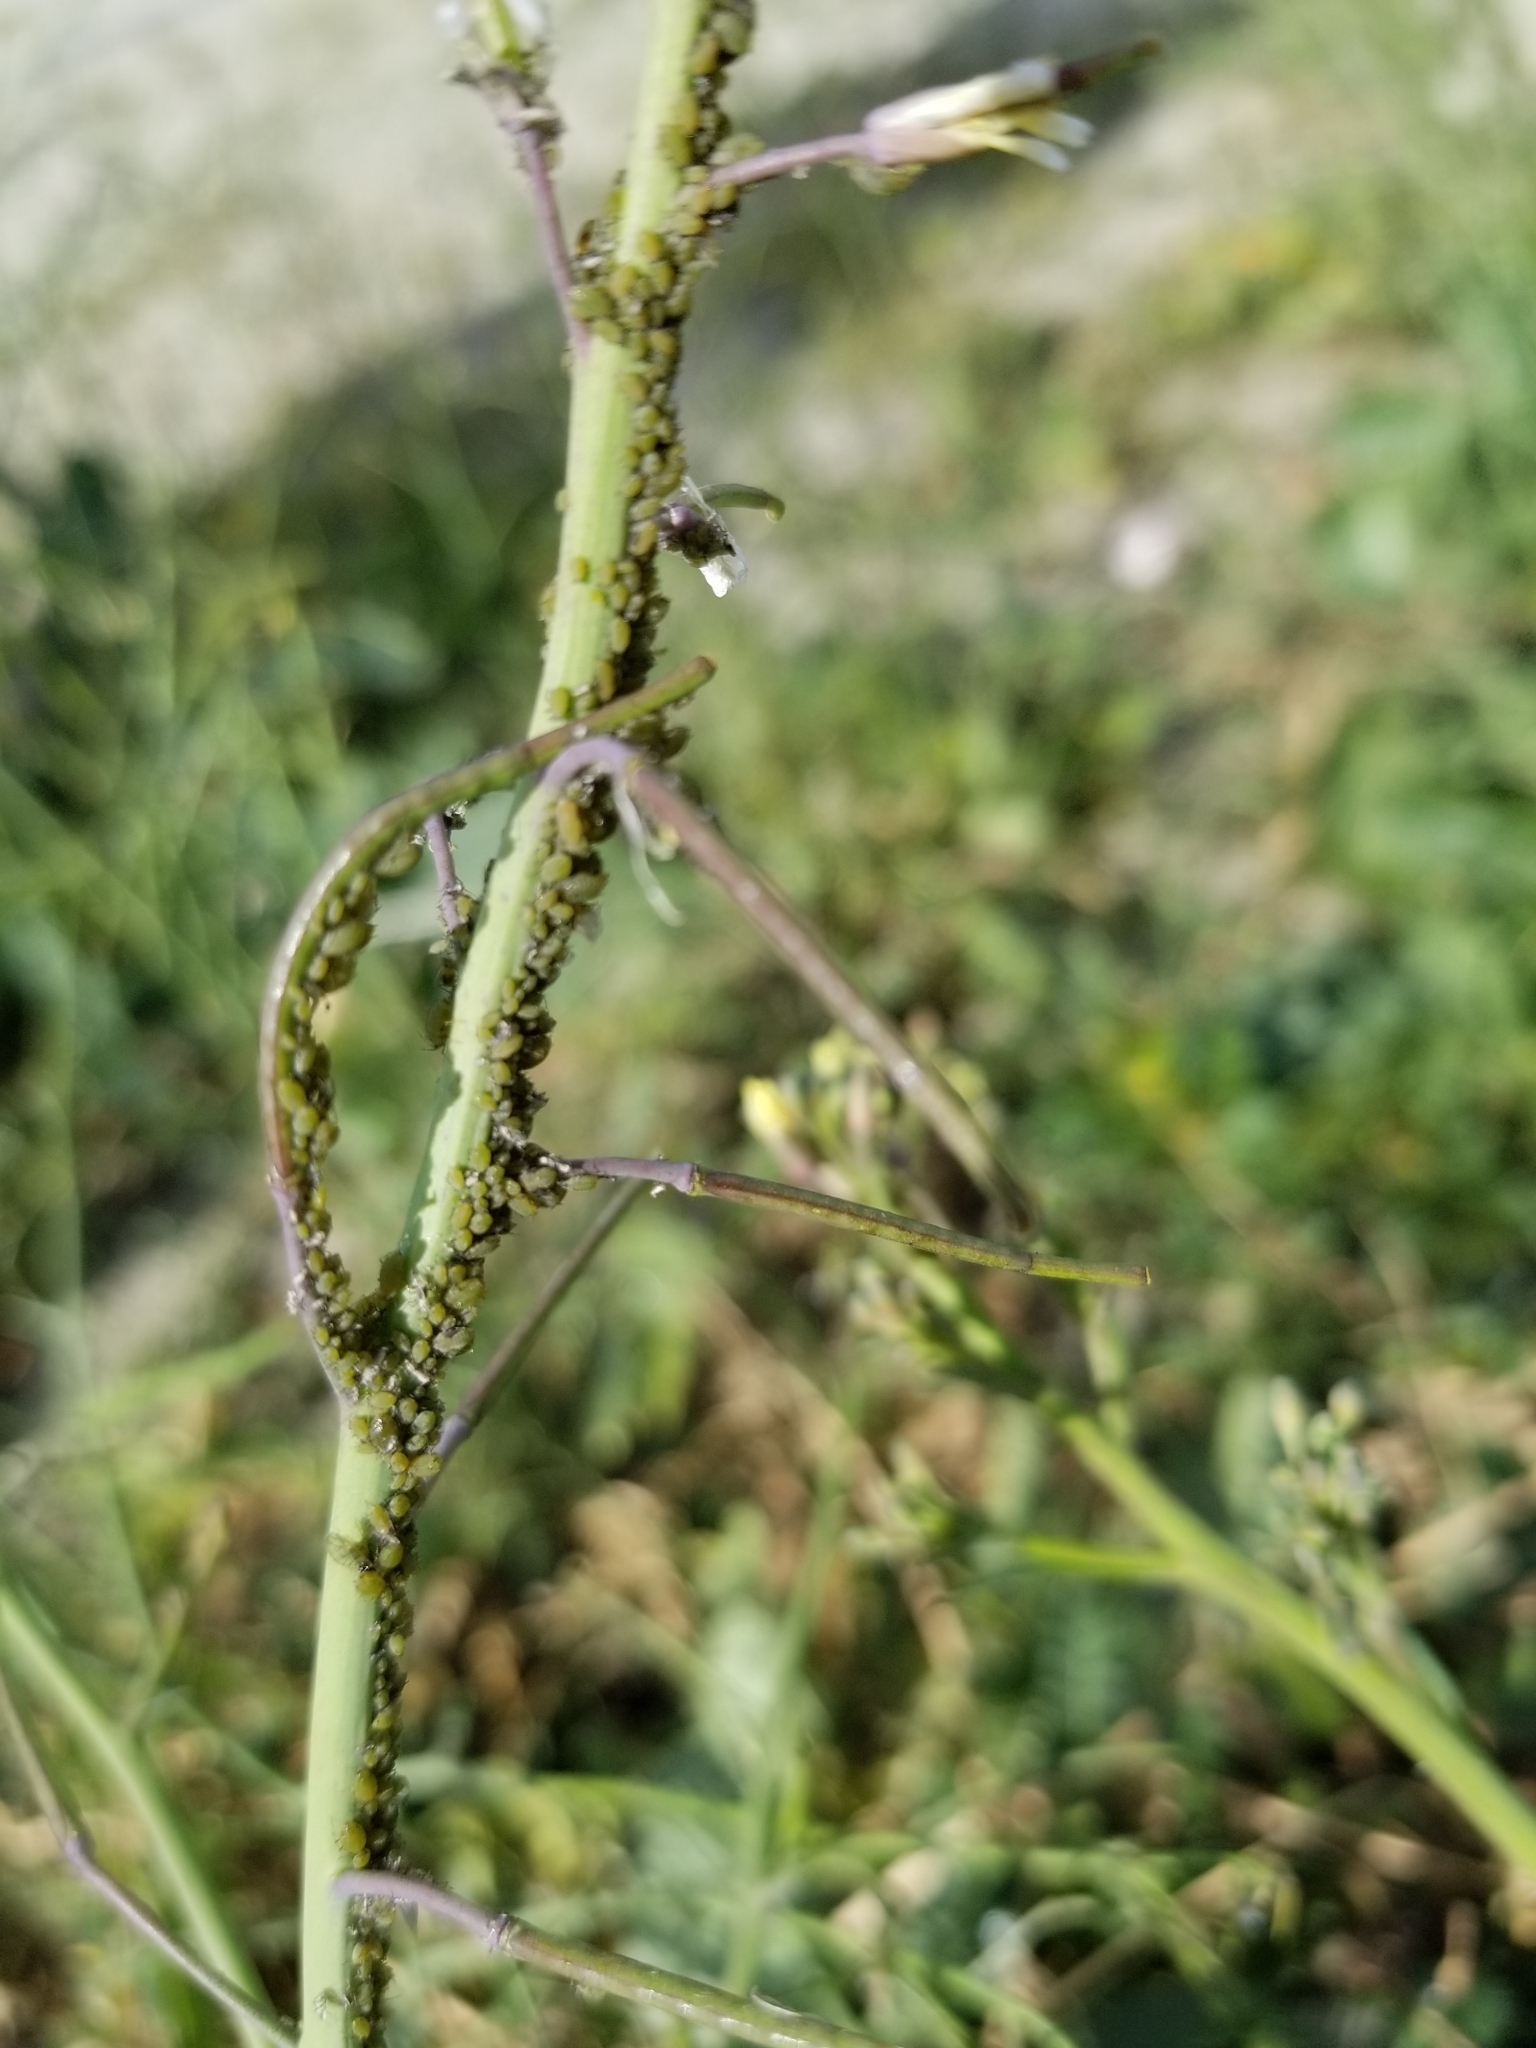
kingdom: Animalia
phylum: Arthropoda
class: Insecta
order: Hemiptera
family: Aphididae
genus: Lipaphis
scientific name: Lipaphis pseudobrassicae
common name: Turnip aphid
